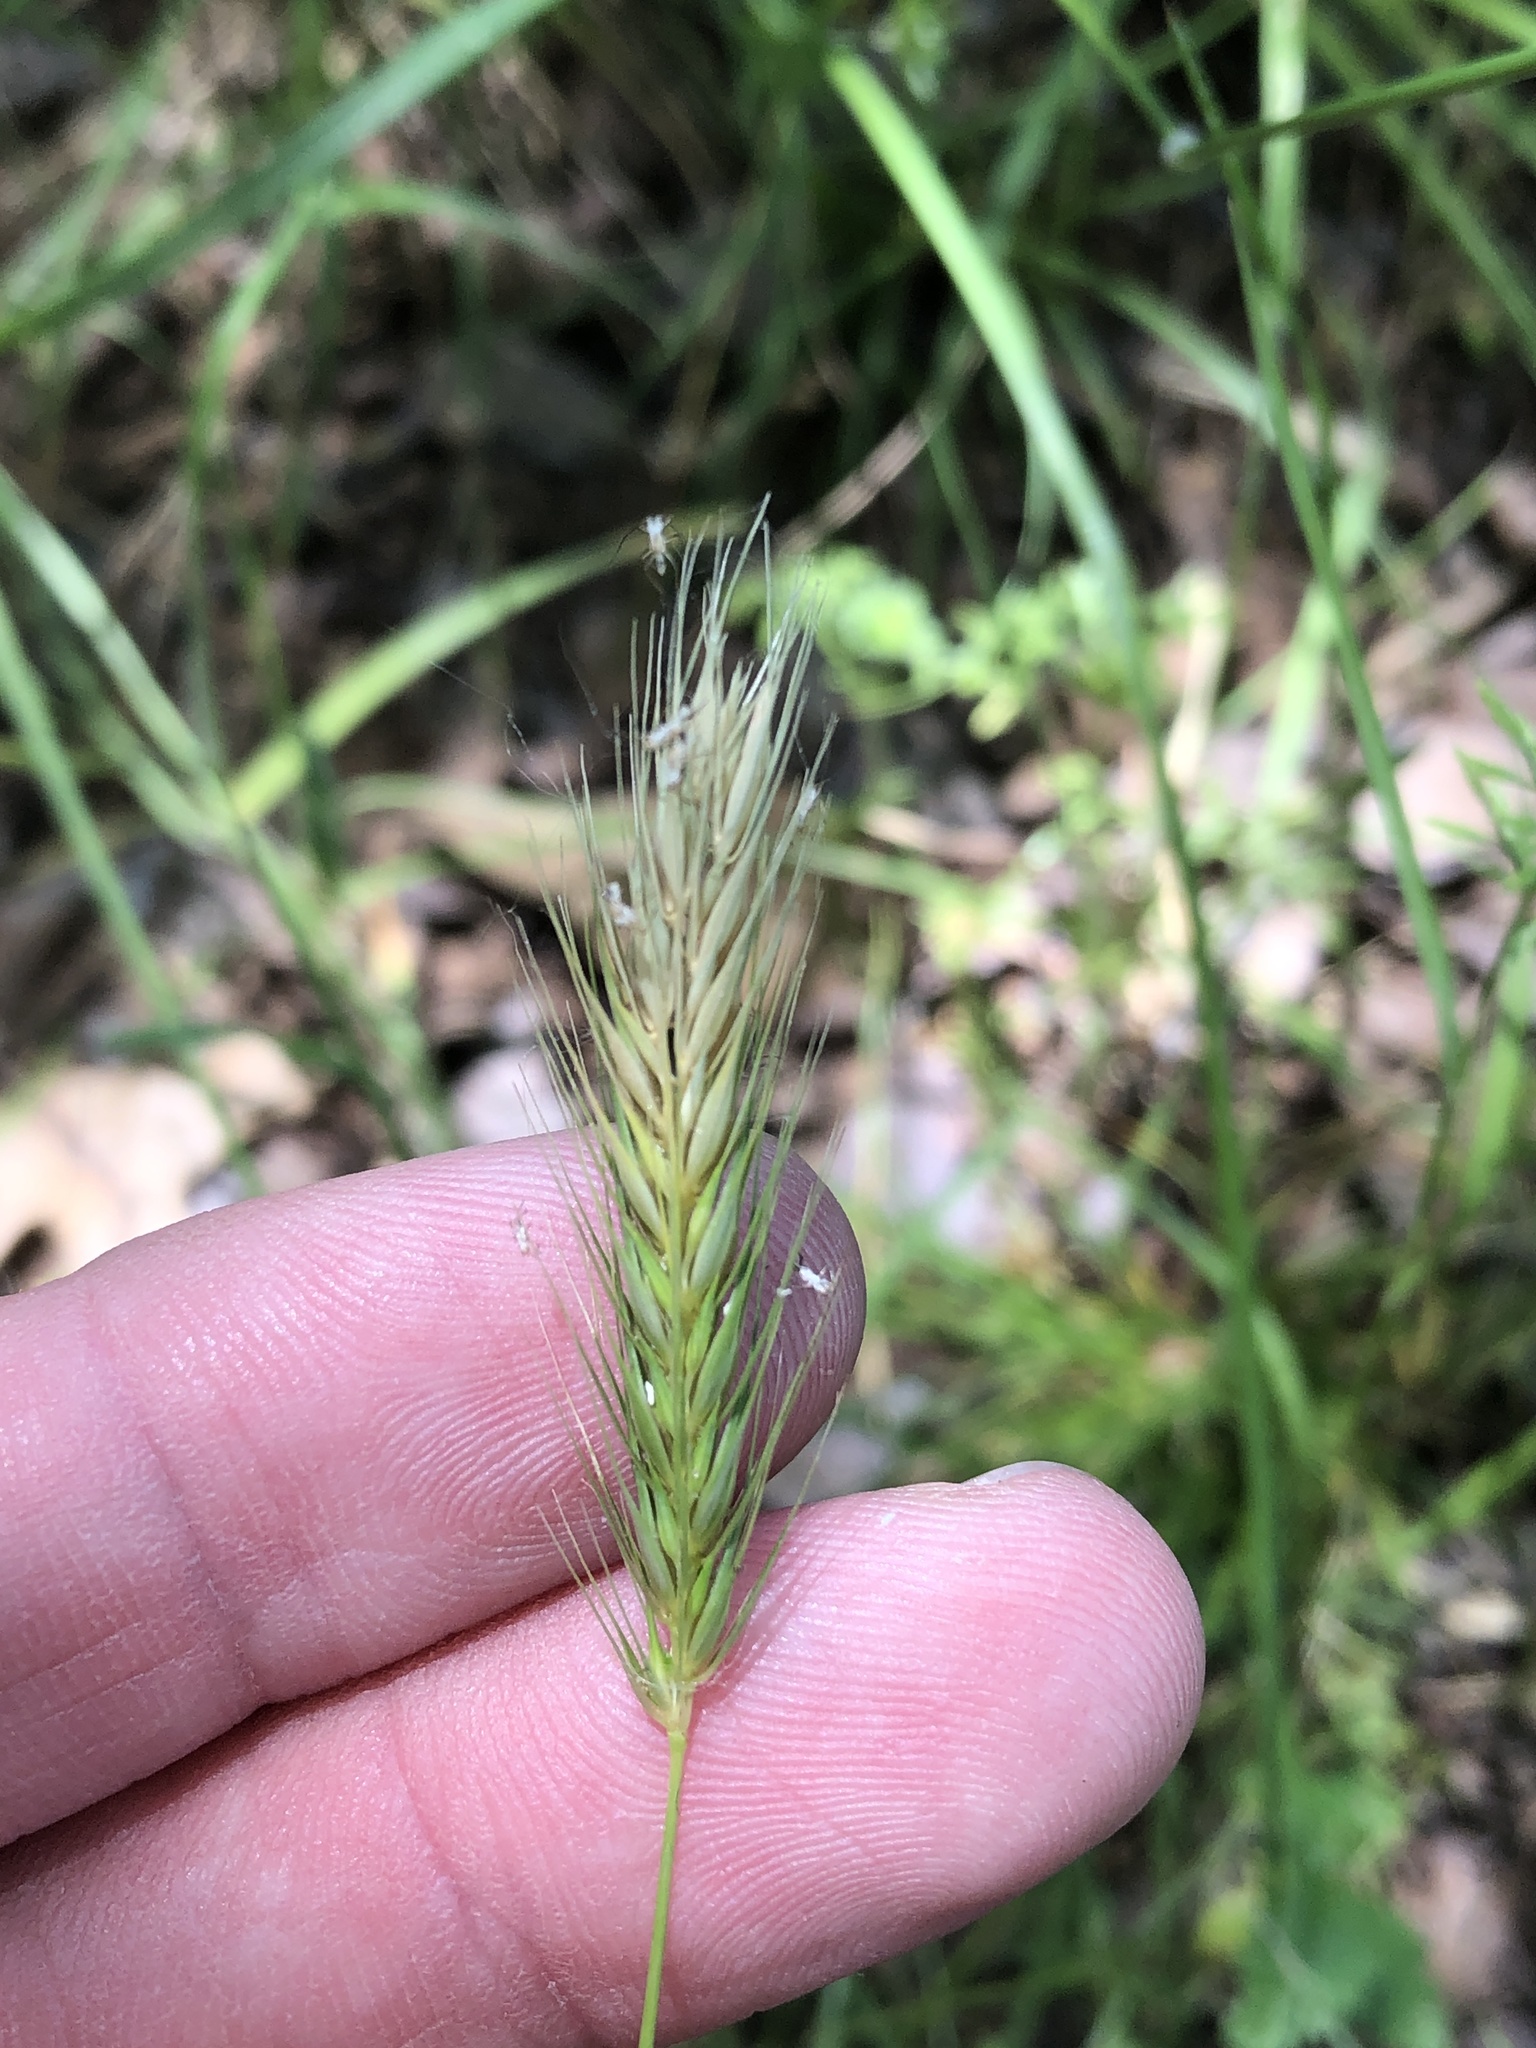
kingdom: Plantae
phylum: Tracheophyta
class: Liliopsida
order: Poales
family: Poaceae
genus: Hordeum
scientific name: Hordeum pusillum
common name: Little barley
